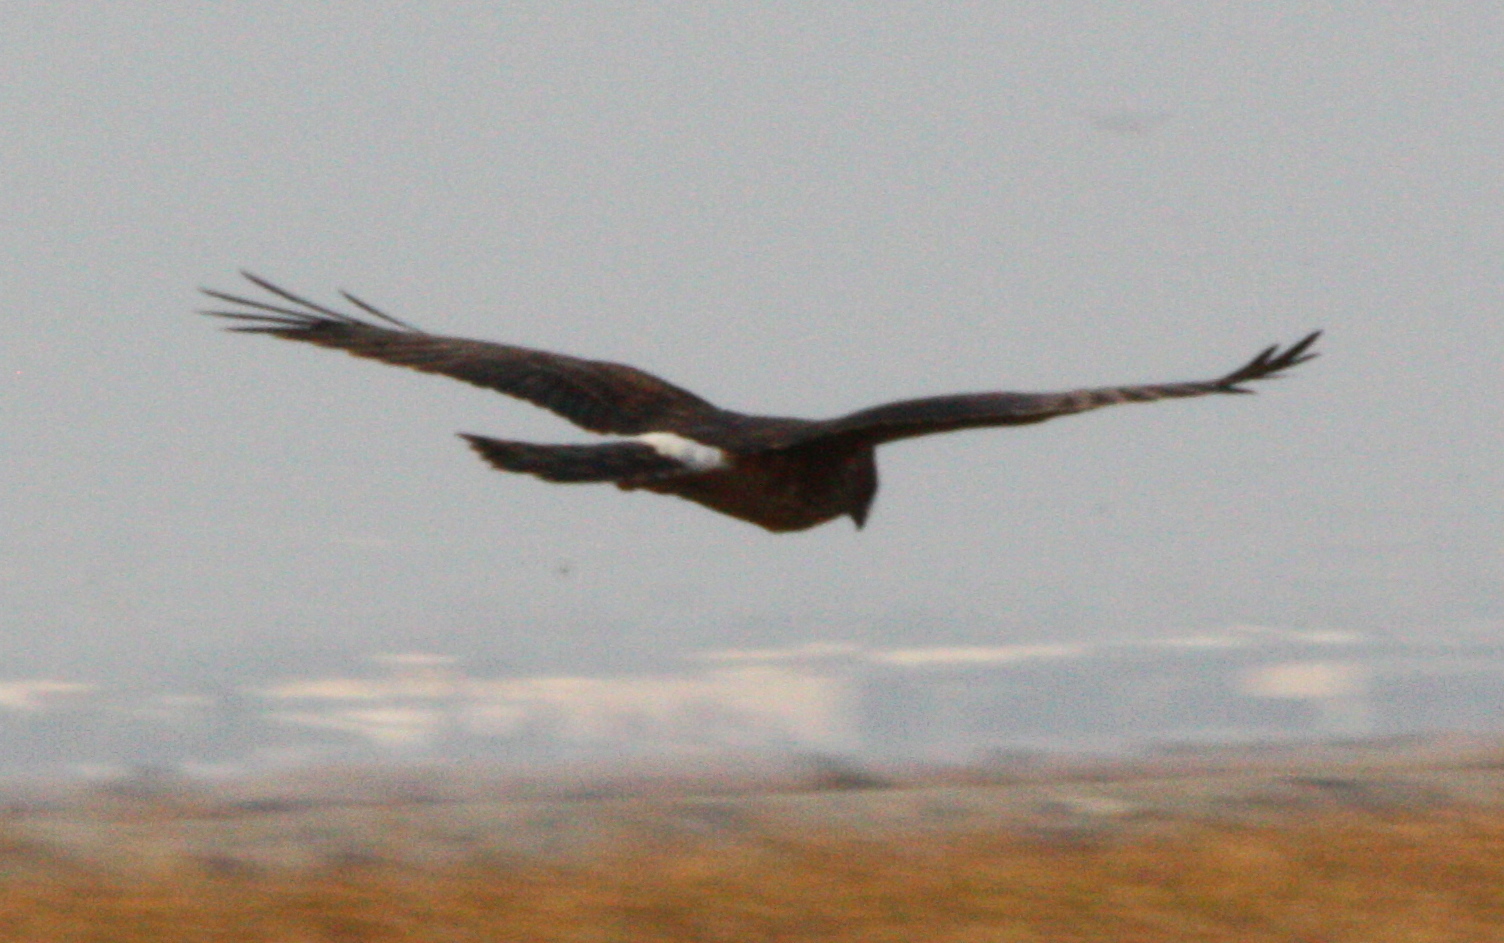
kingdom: Animalia
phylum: Chordata
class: Aves
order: Accipitriformes
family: Accipitridae
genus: Circus
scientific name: Circus cyaneus
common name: Hen harrier
